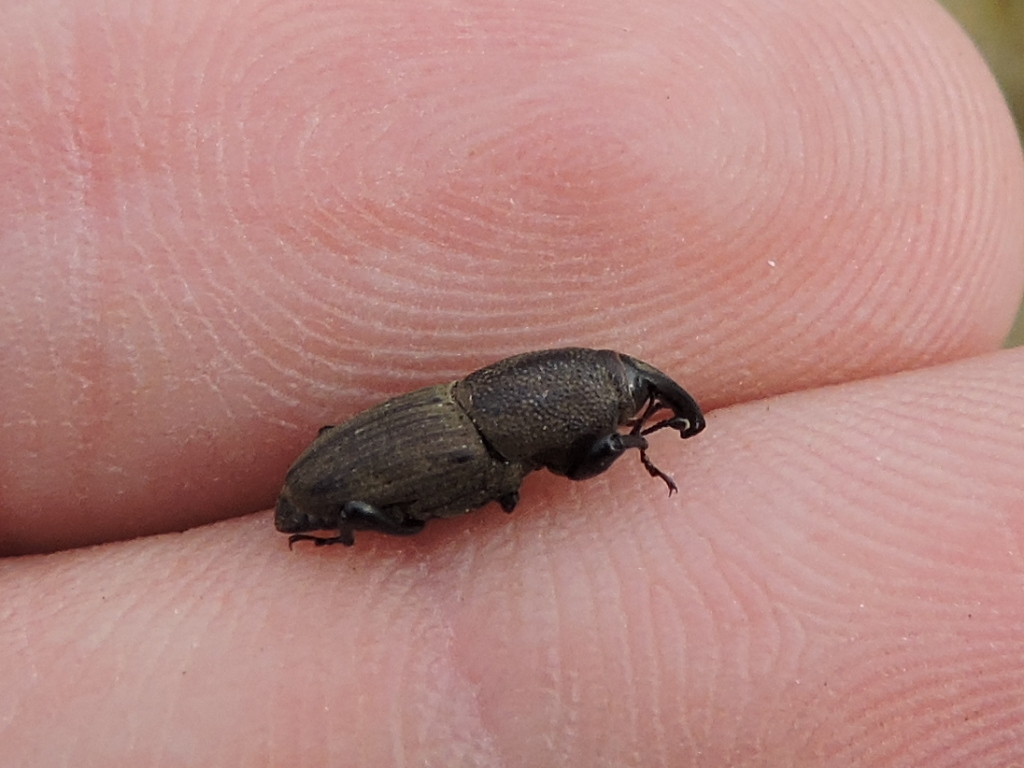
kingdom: Animalia
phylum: Arthropoda
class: Insecta
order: Coleoptera
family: Dryophthoridae
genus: Sphenophorus
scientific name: Sphenophorus coesifrons
